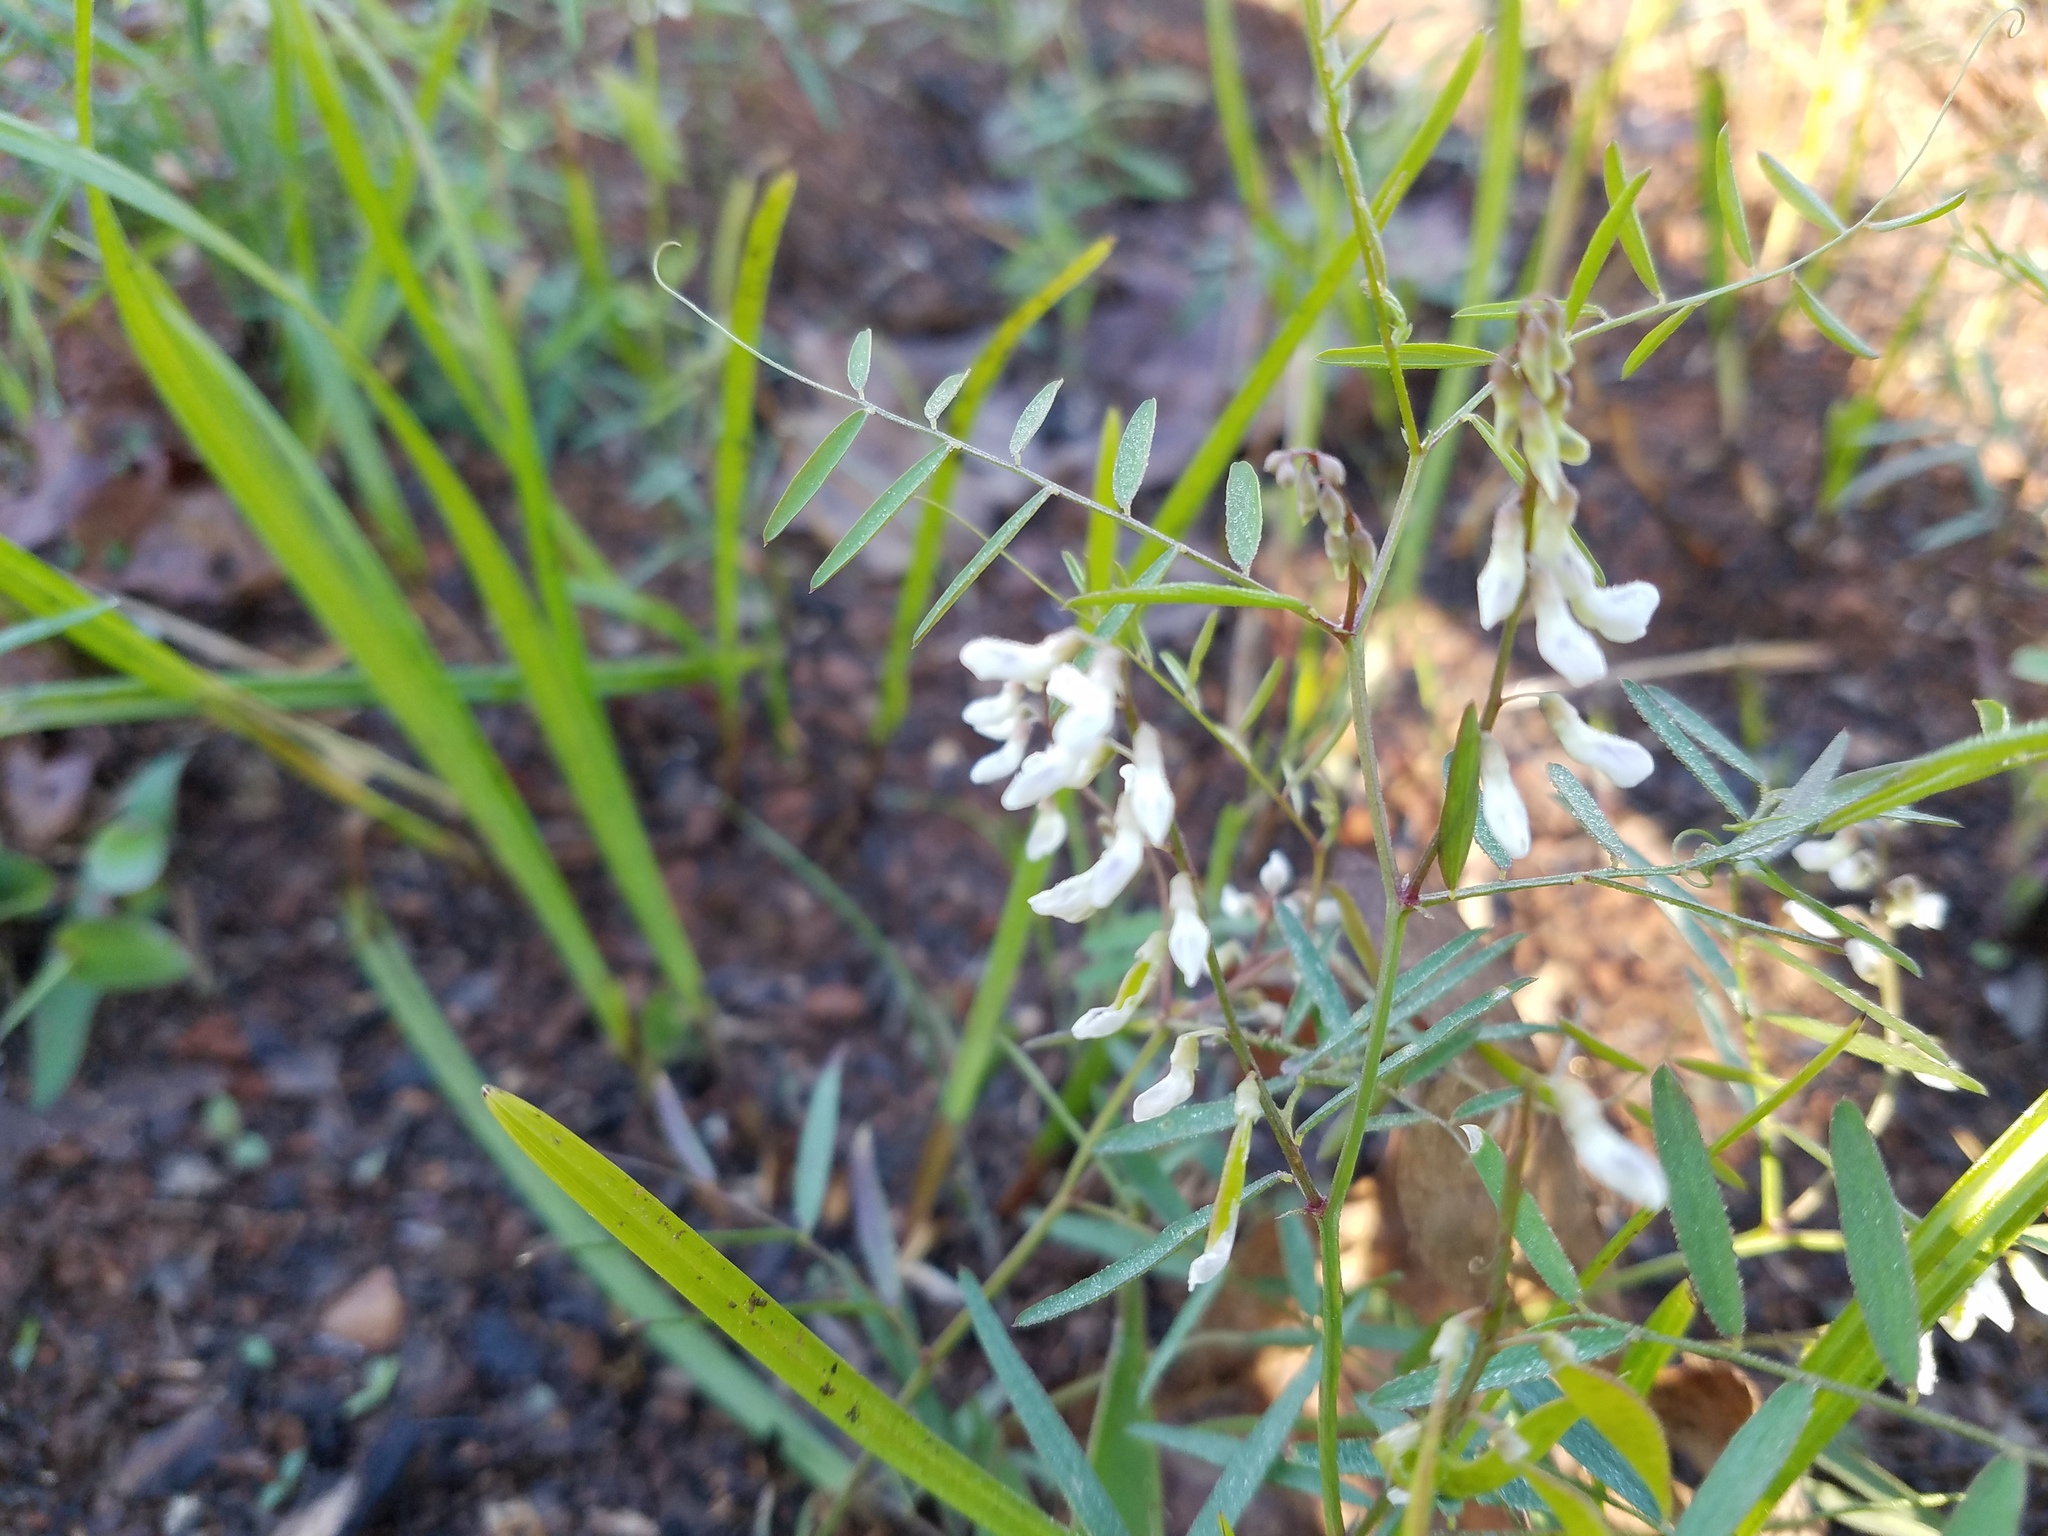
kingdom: Plantae
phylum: Tracheophyta
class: Magnoliopsida
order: Fabales
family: Fabaceae
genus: Vicia
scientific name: Vicia caroliniana
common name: Carolina vetch
